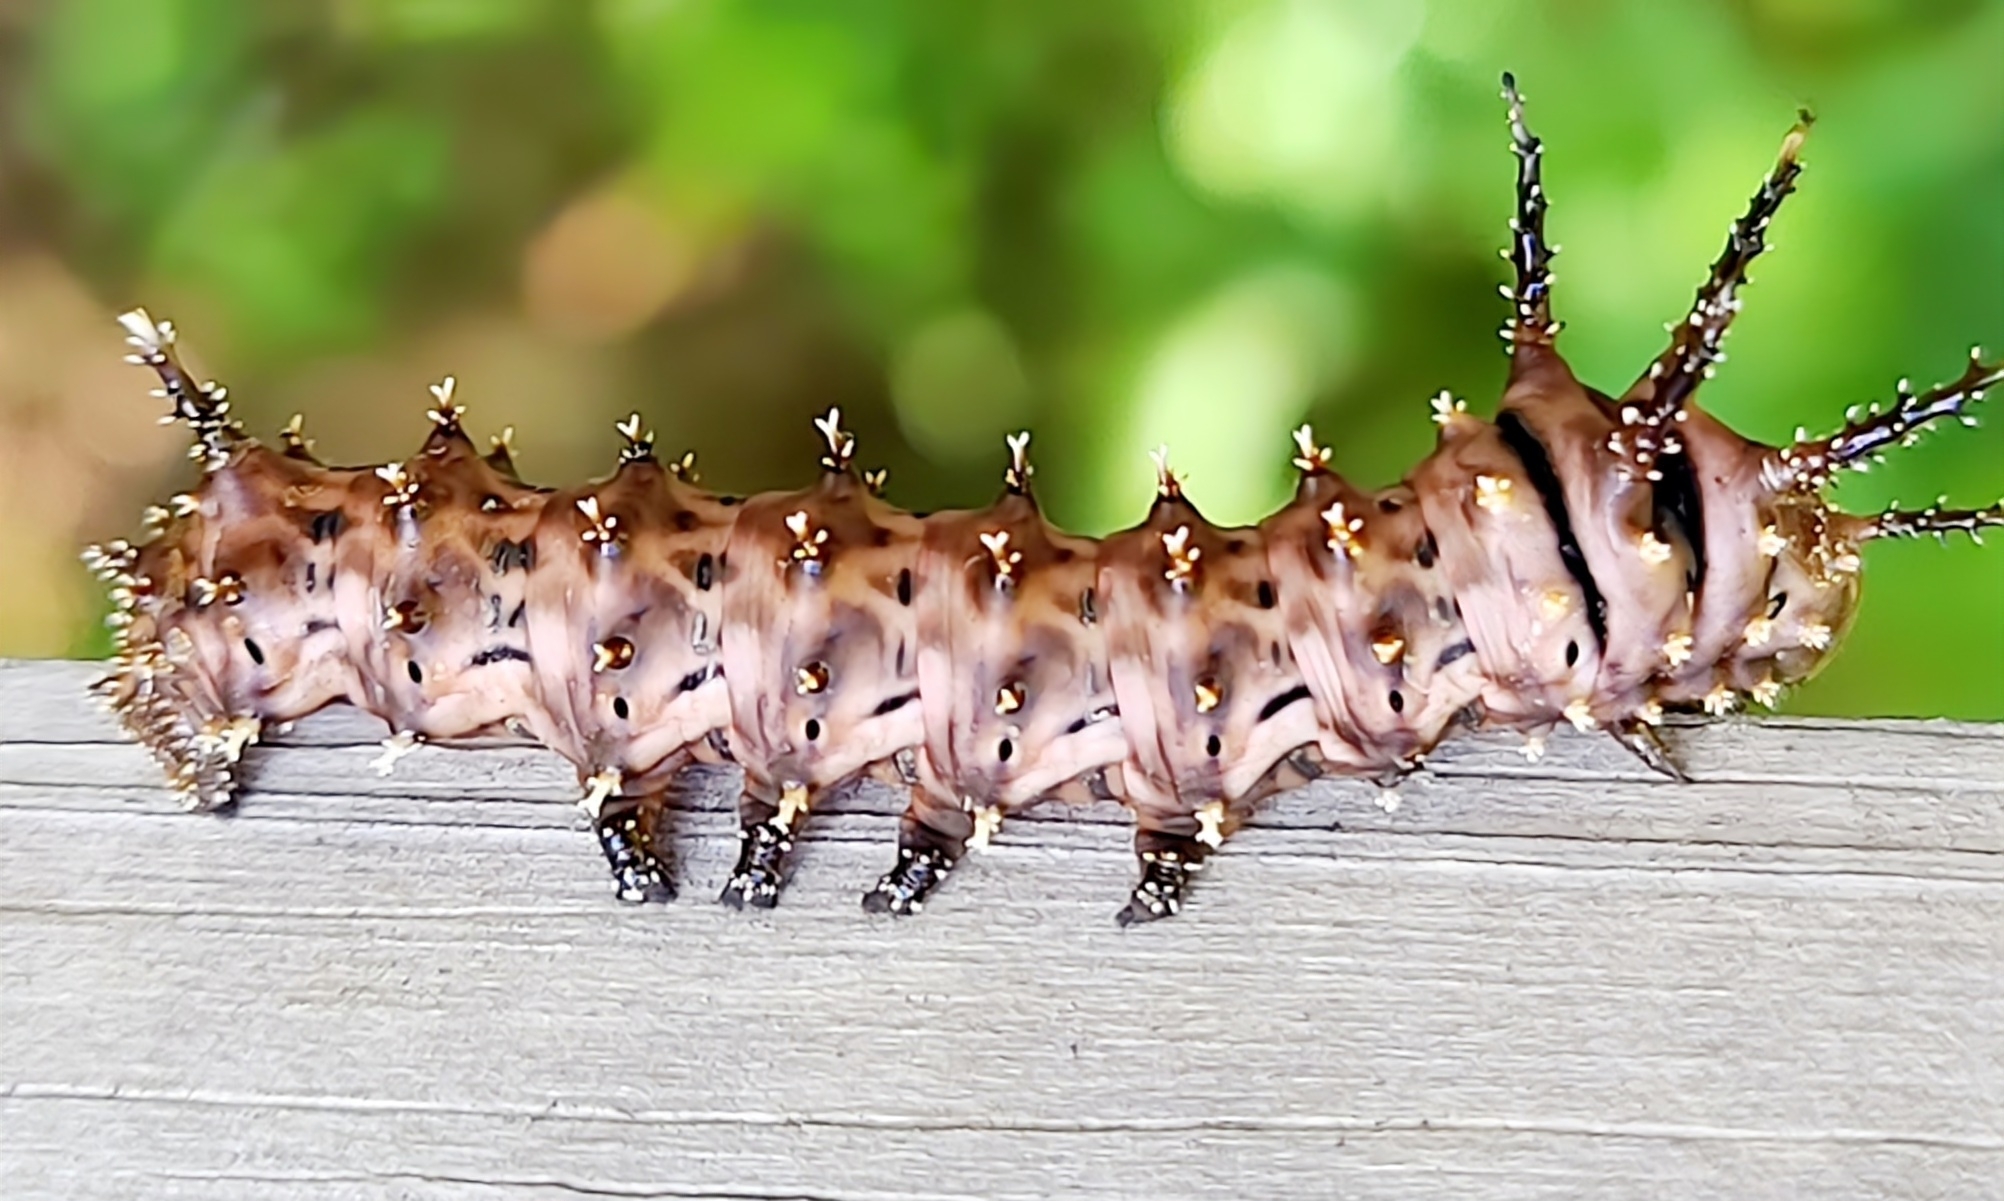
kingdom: Animalia
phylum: Arthropoda
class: Insecta
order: Lepidoptera
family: Saturniidae
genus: Citheronia
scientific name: Citheronia sepulcralis
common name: Pine-devil moth
